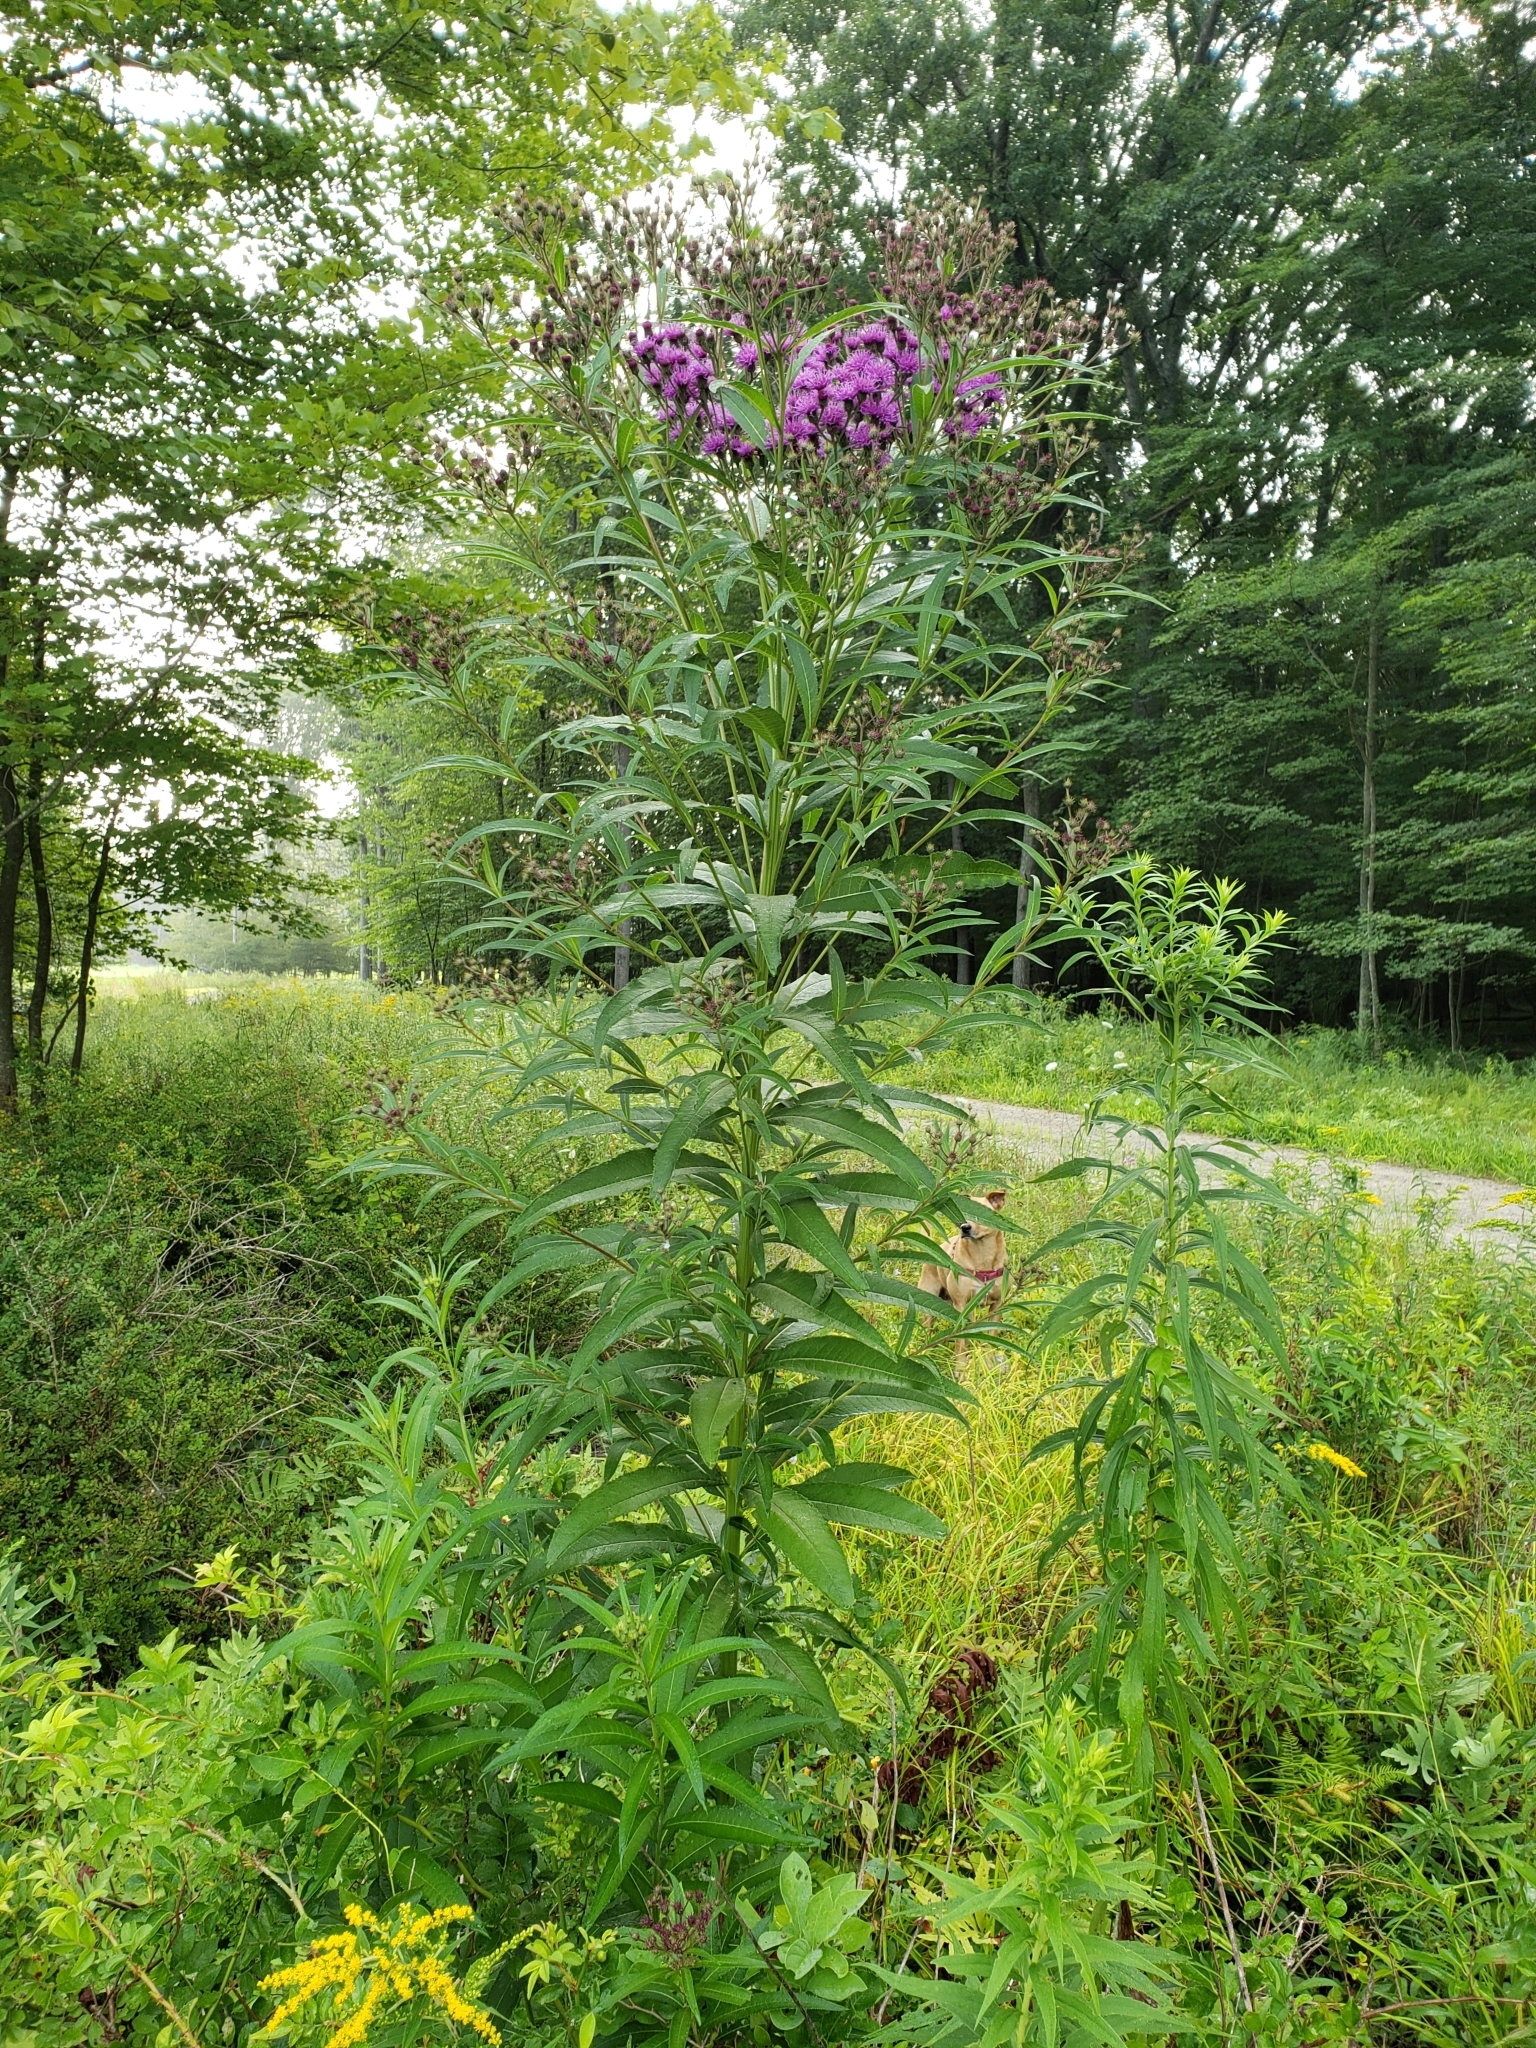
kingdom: Plantae
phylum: Tracheophyta
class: Magnoliopsida
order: Asterales
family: Asteraceae
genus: Vernonia
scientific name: Vernonia noveboracensis
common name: New york ironweed
